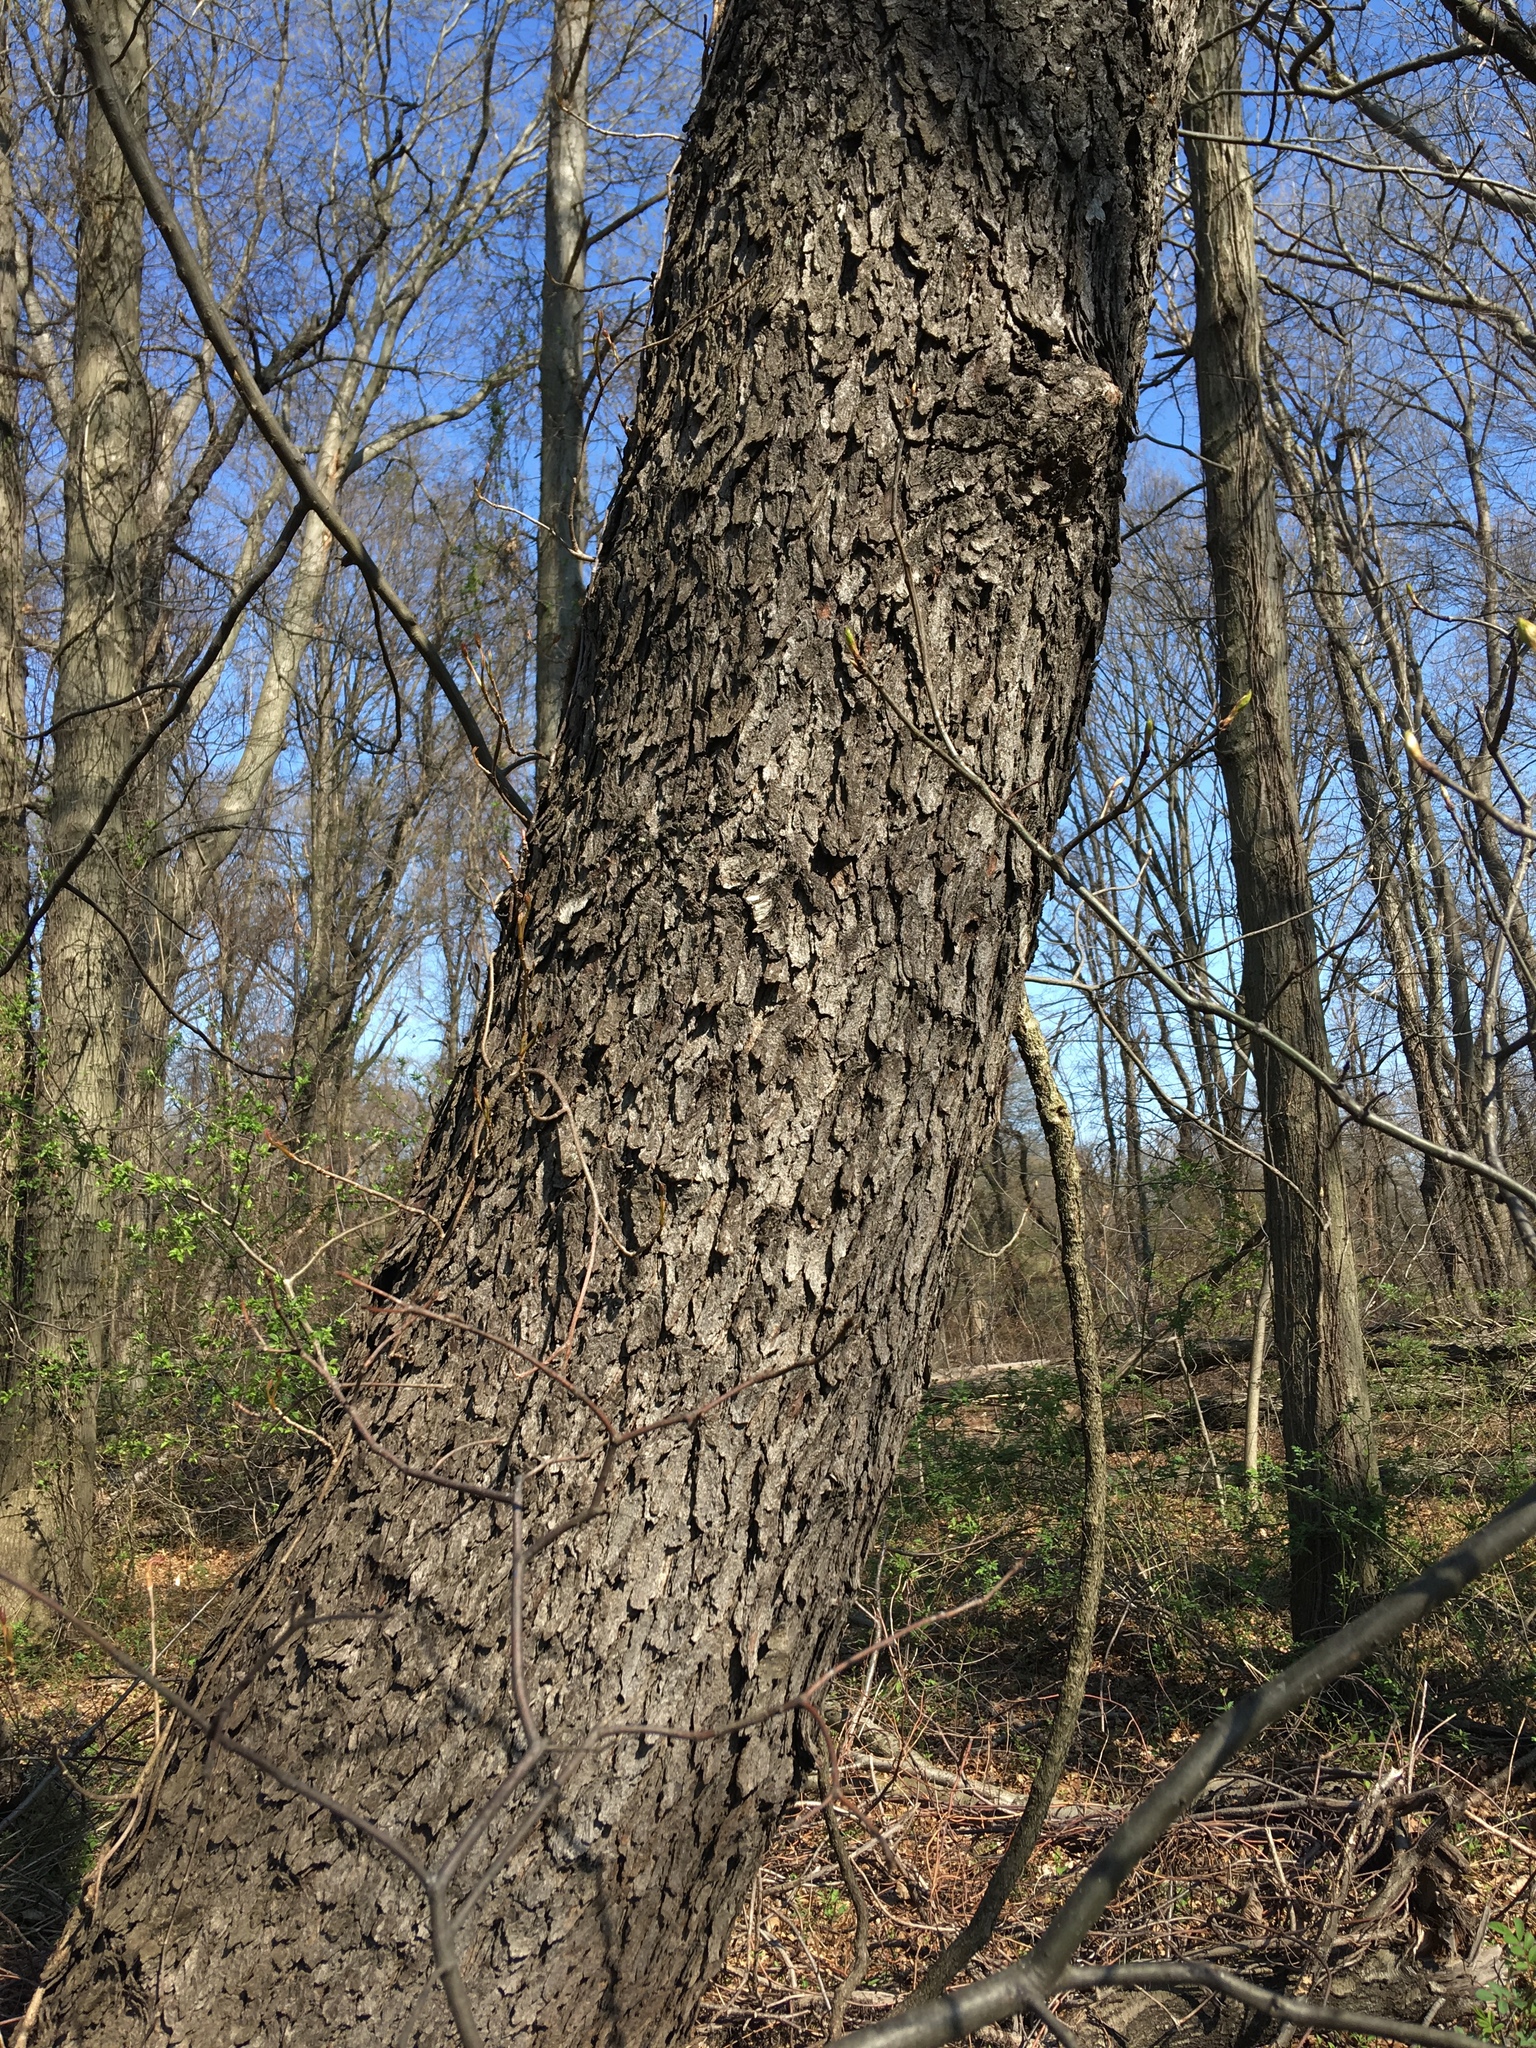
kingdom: Plantae
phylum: Tracheophyta
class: Magnoliopsida
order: Rosales
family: Rosaceae
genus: Prunus
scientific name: Prunus serotina
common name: Black cherry
